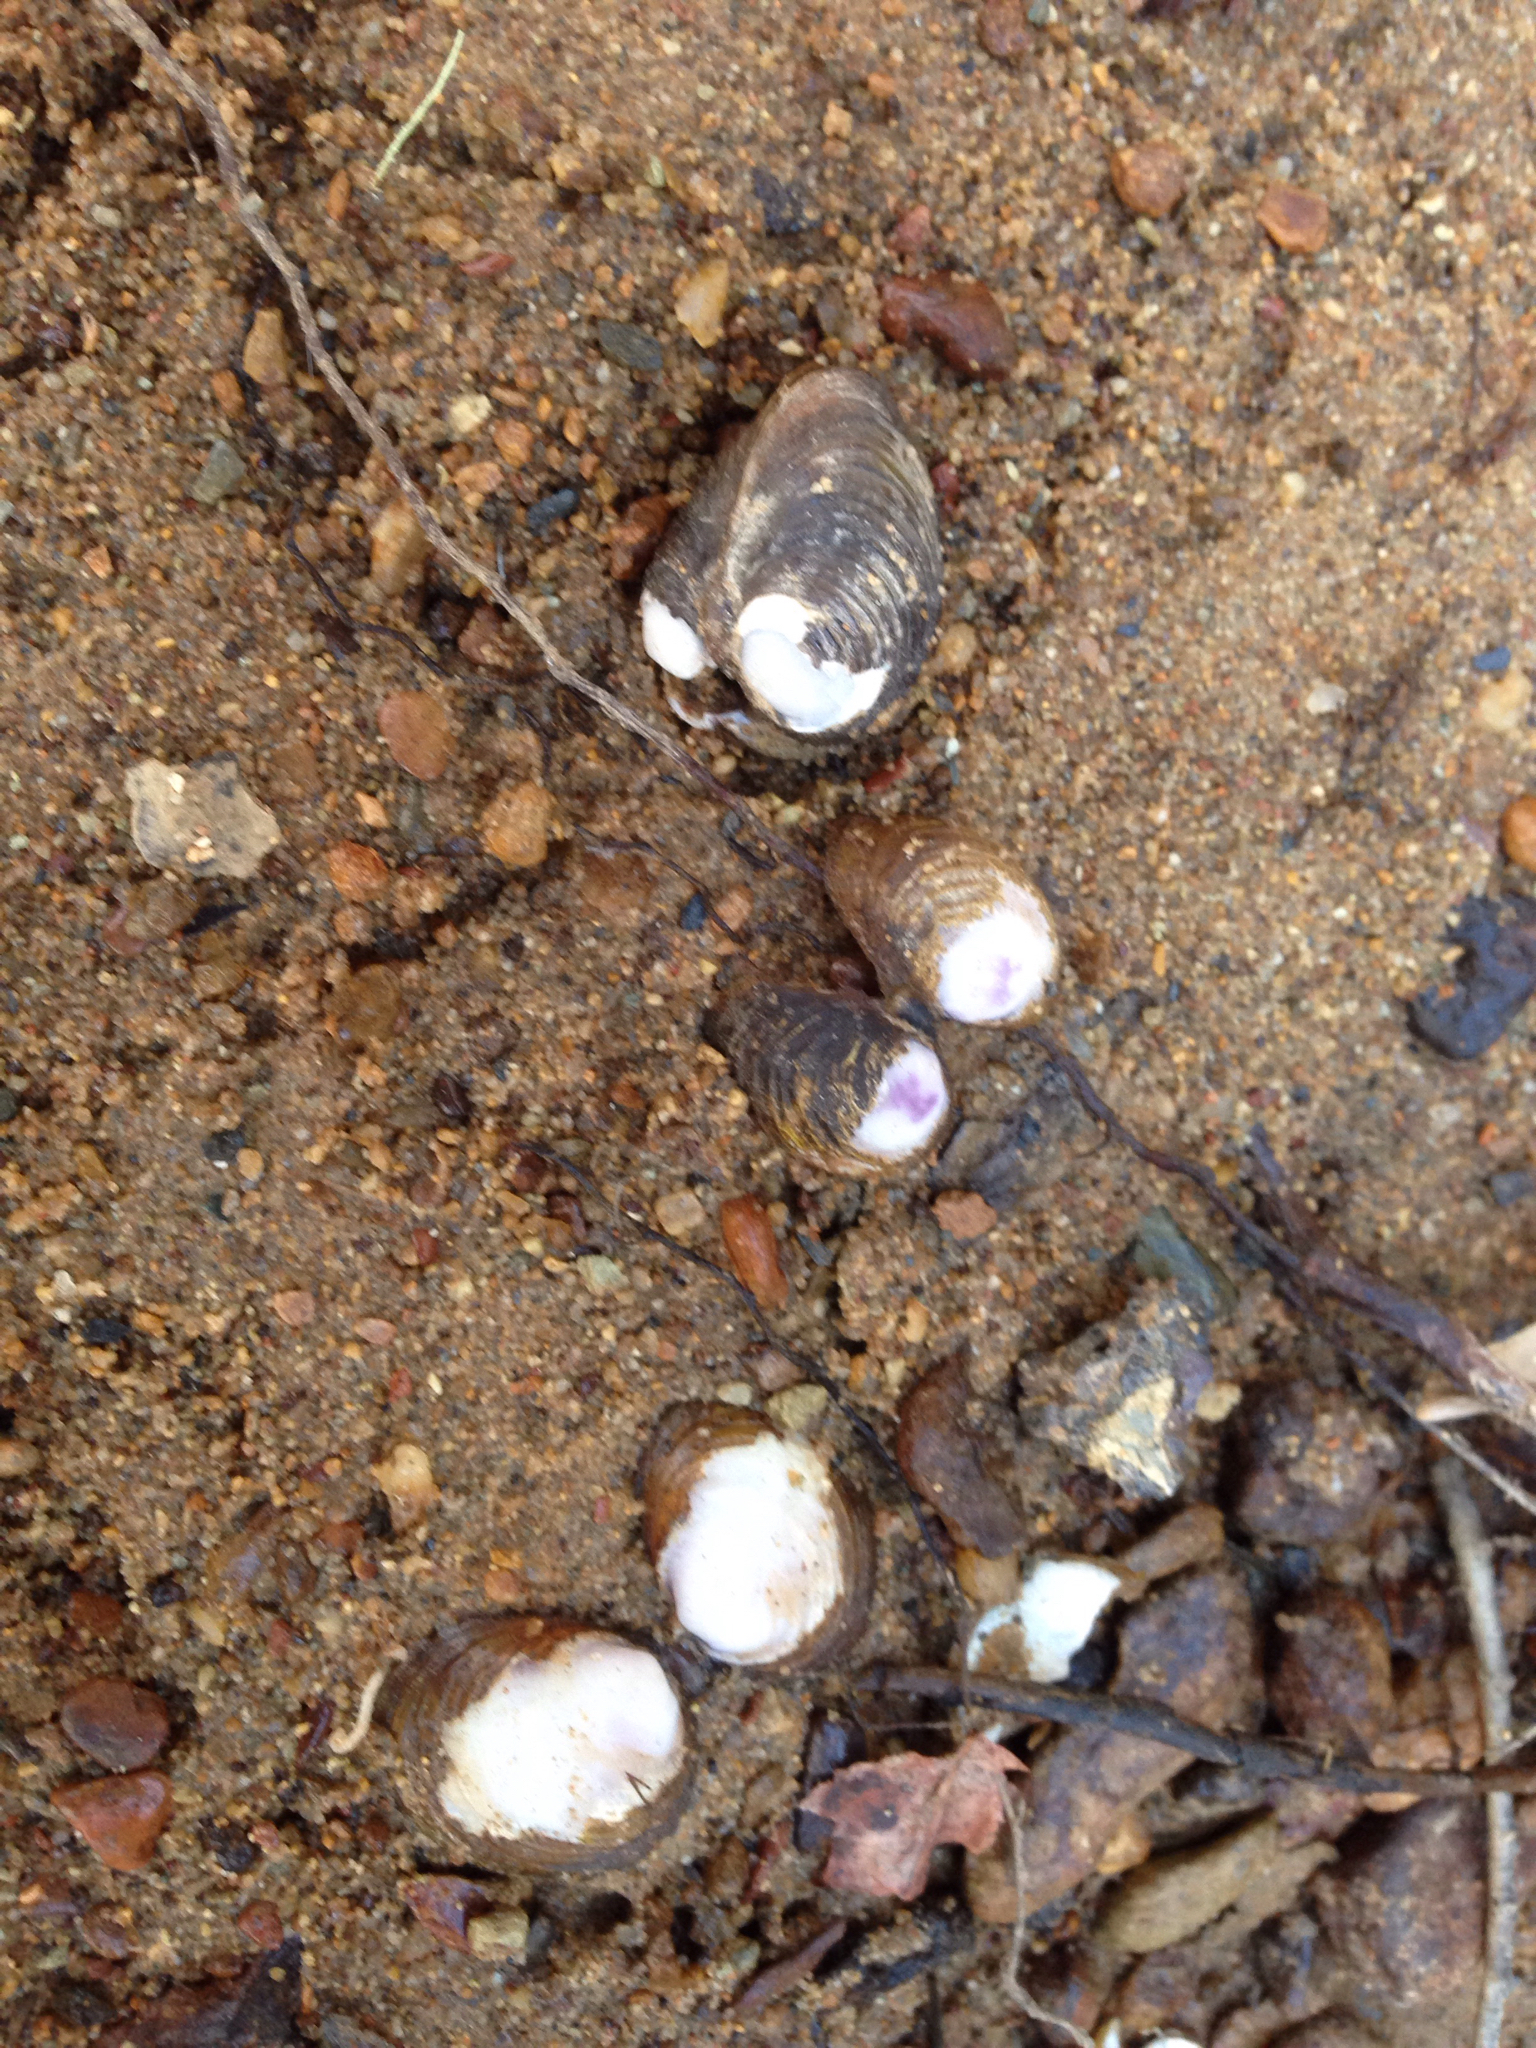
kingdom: Animalia
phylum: Mollusca
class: Bivalvia
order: Venerida
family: Cyrenidae
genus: Corbicula
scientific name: Corbicula fluminea
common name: Asian clam
